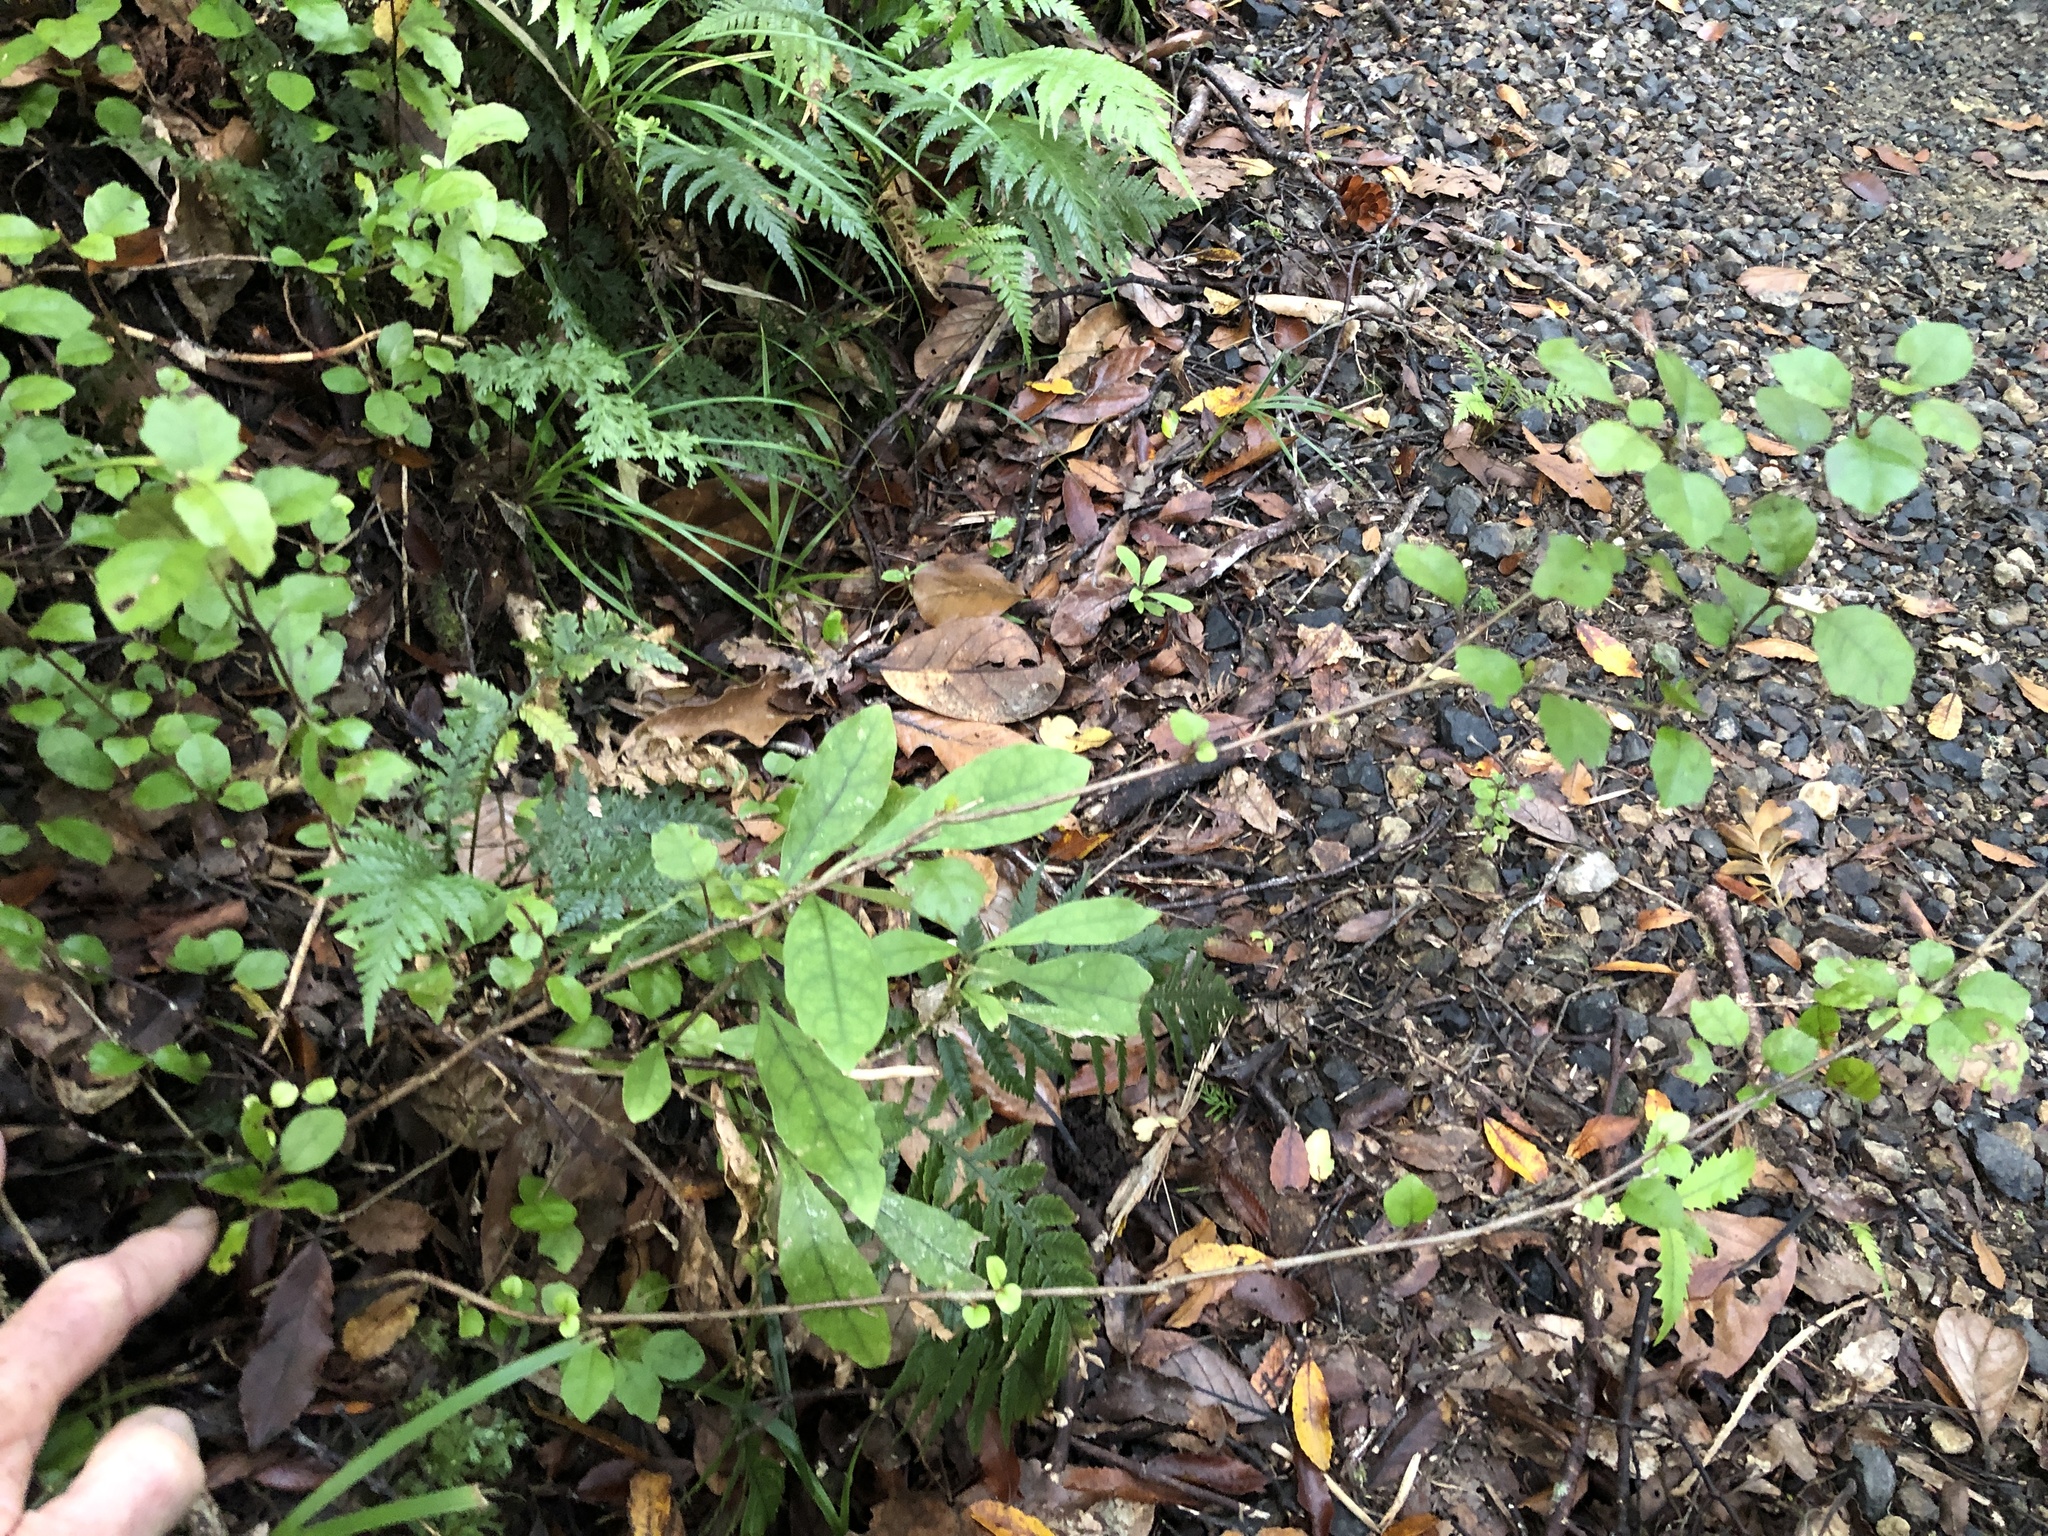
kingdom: Plantae
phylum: Tracheophyta
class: Magnoliopsida
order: Asterales
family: Alseuosmiaceae
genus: Alseuosmia
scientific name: Alseuosmia banksii
